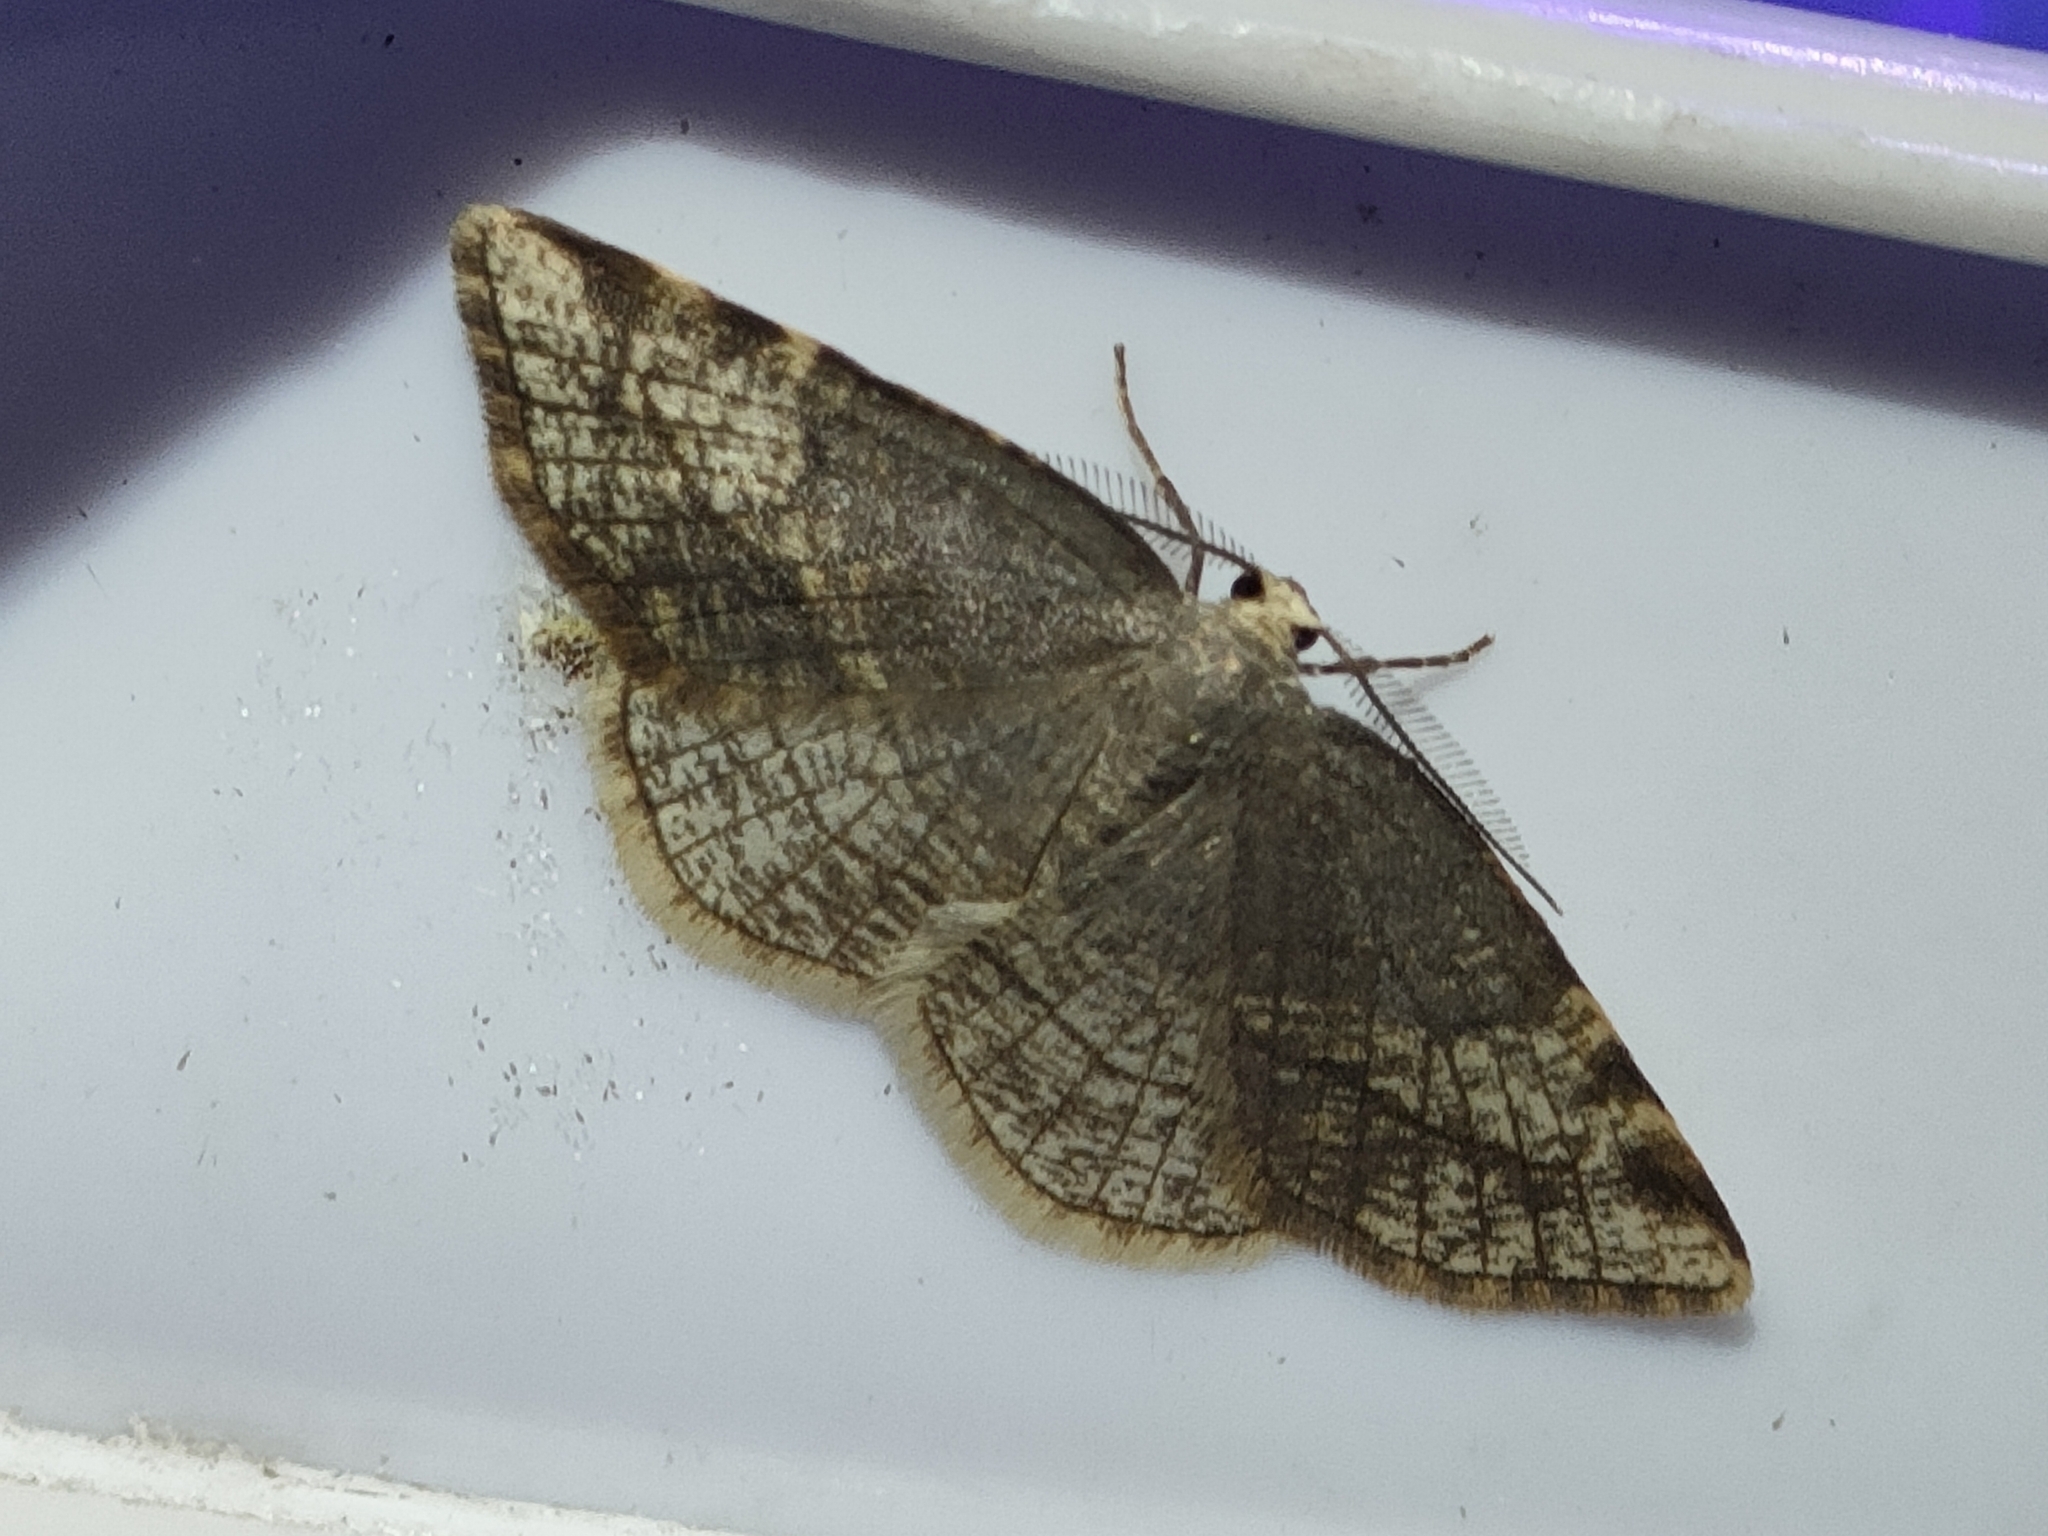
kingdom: Animalia
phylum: Arthropoda
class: Insecta
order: Lepidoptera
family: Geometridae
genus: Stegania
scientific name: Stegania trimaculata
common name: Dorset cream wave
